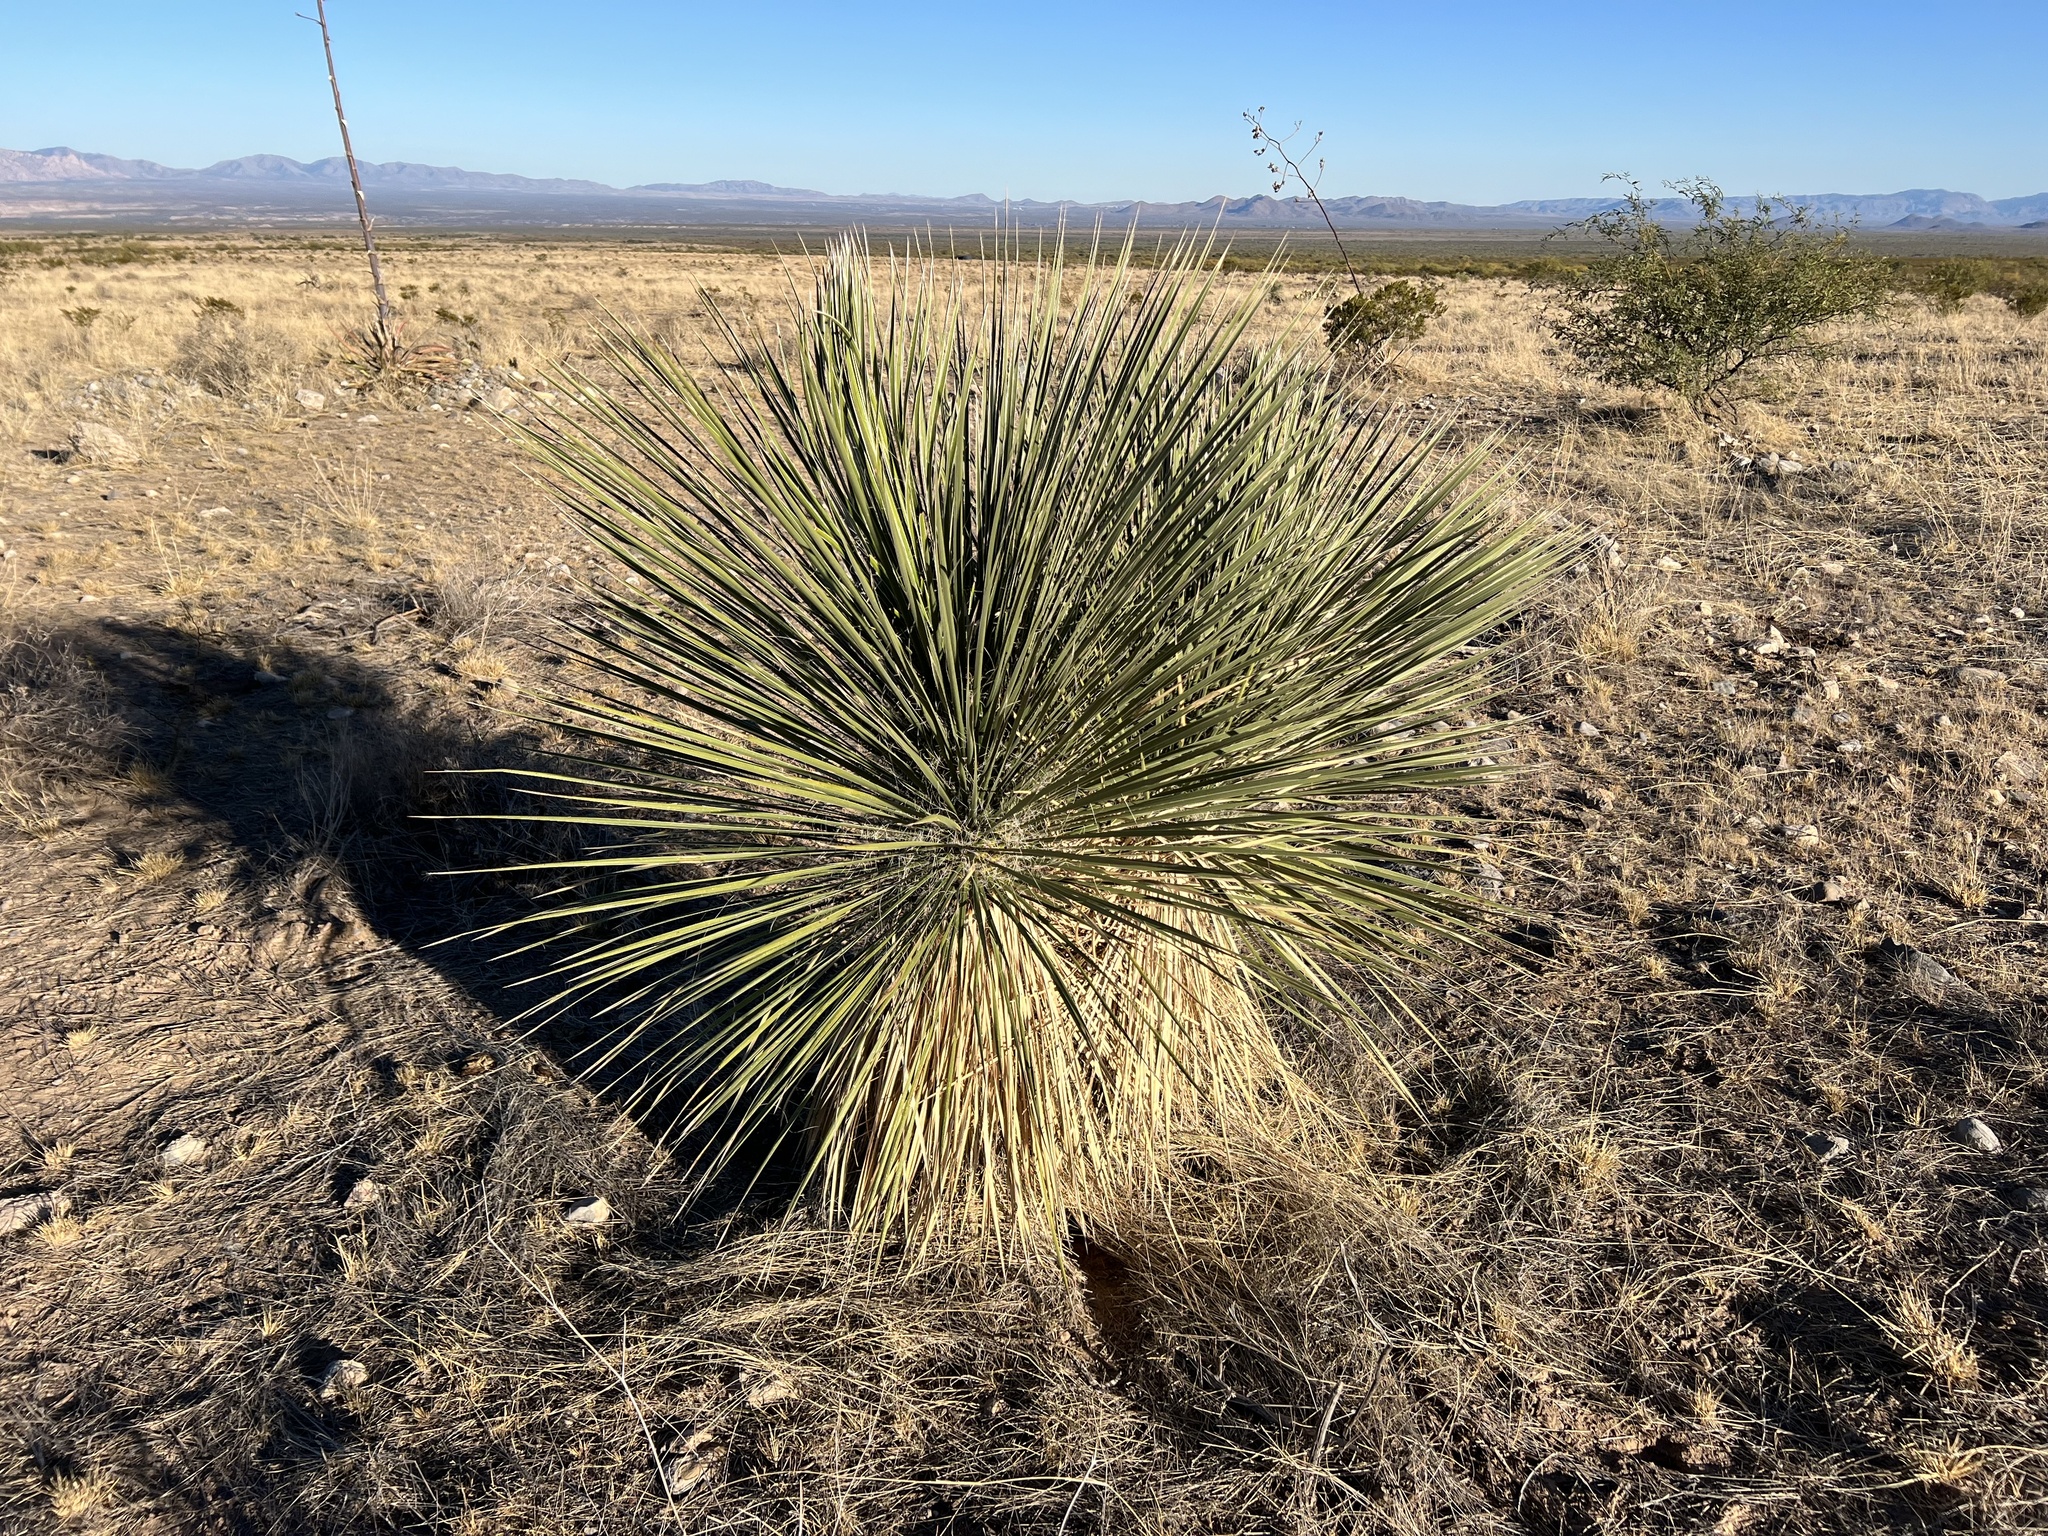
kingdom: Plantae
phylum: Tracheophyta
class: Liliopsida
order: Asparagales
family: Asparagaceae
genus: Yucca
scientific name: Yucca elata
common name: Palmella
